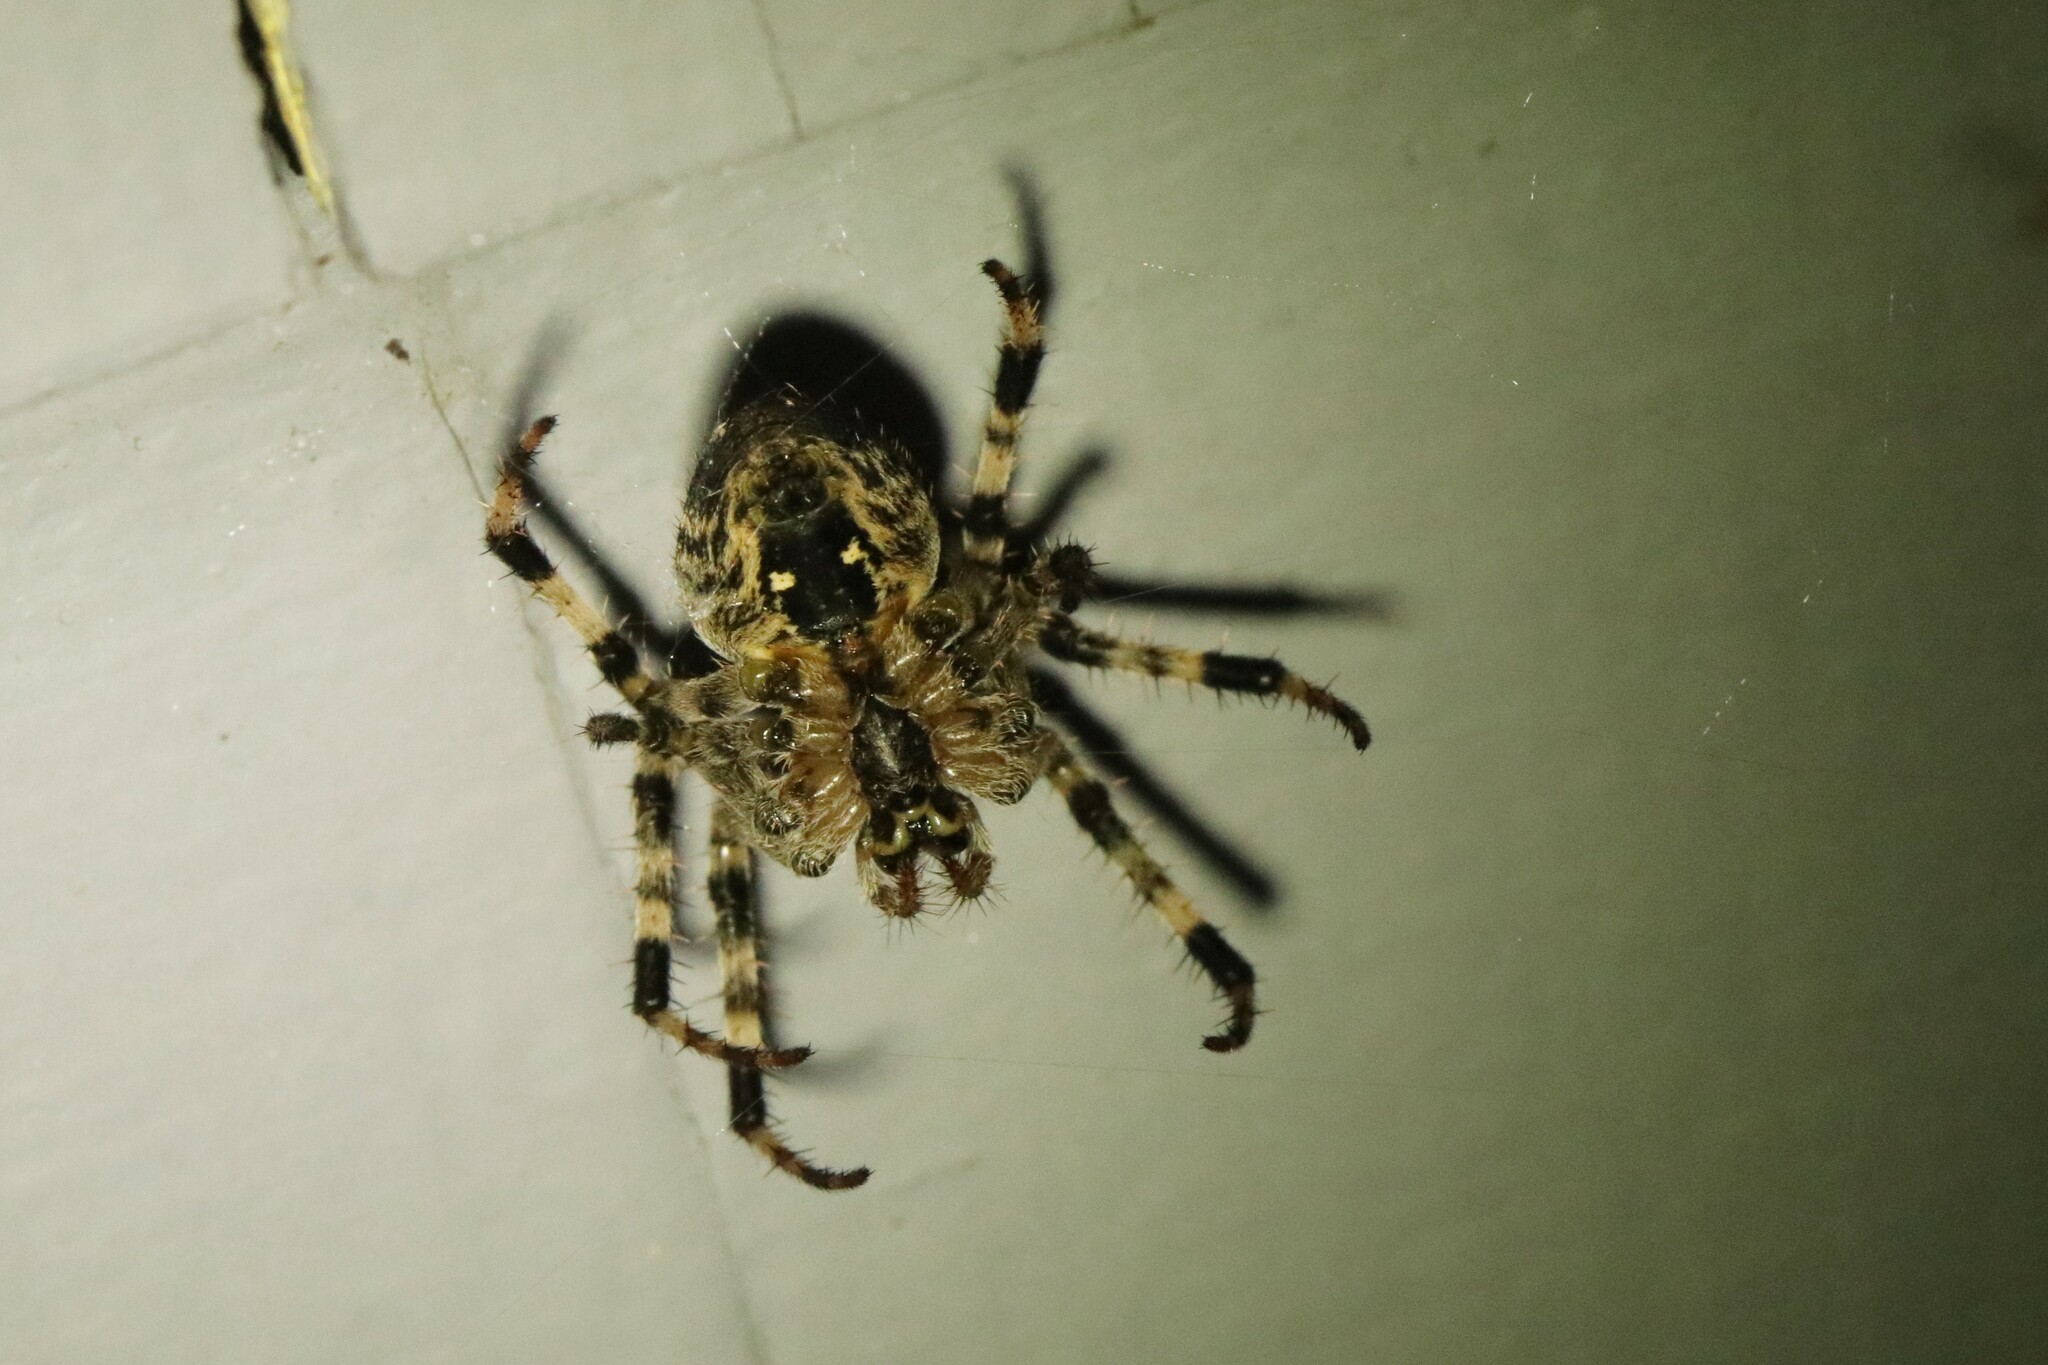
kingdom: Animalia
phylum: Arthropoda
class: Arachnida
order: Araneae
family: Araneidae
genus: Araneus
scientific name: Araneus diadematus
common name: Cross orbweaver
